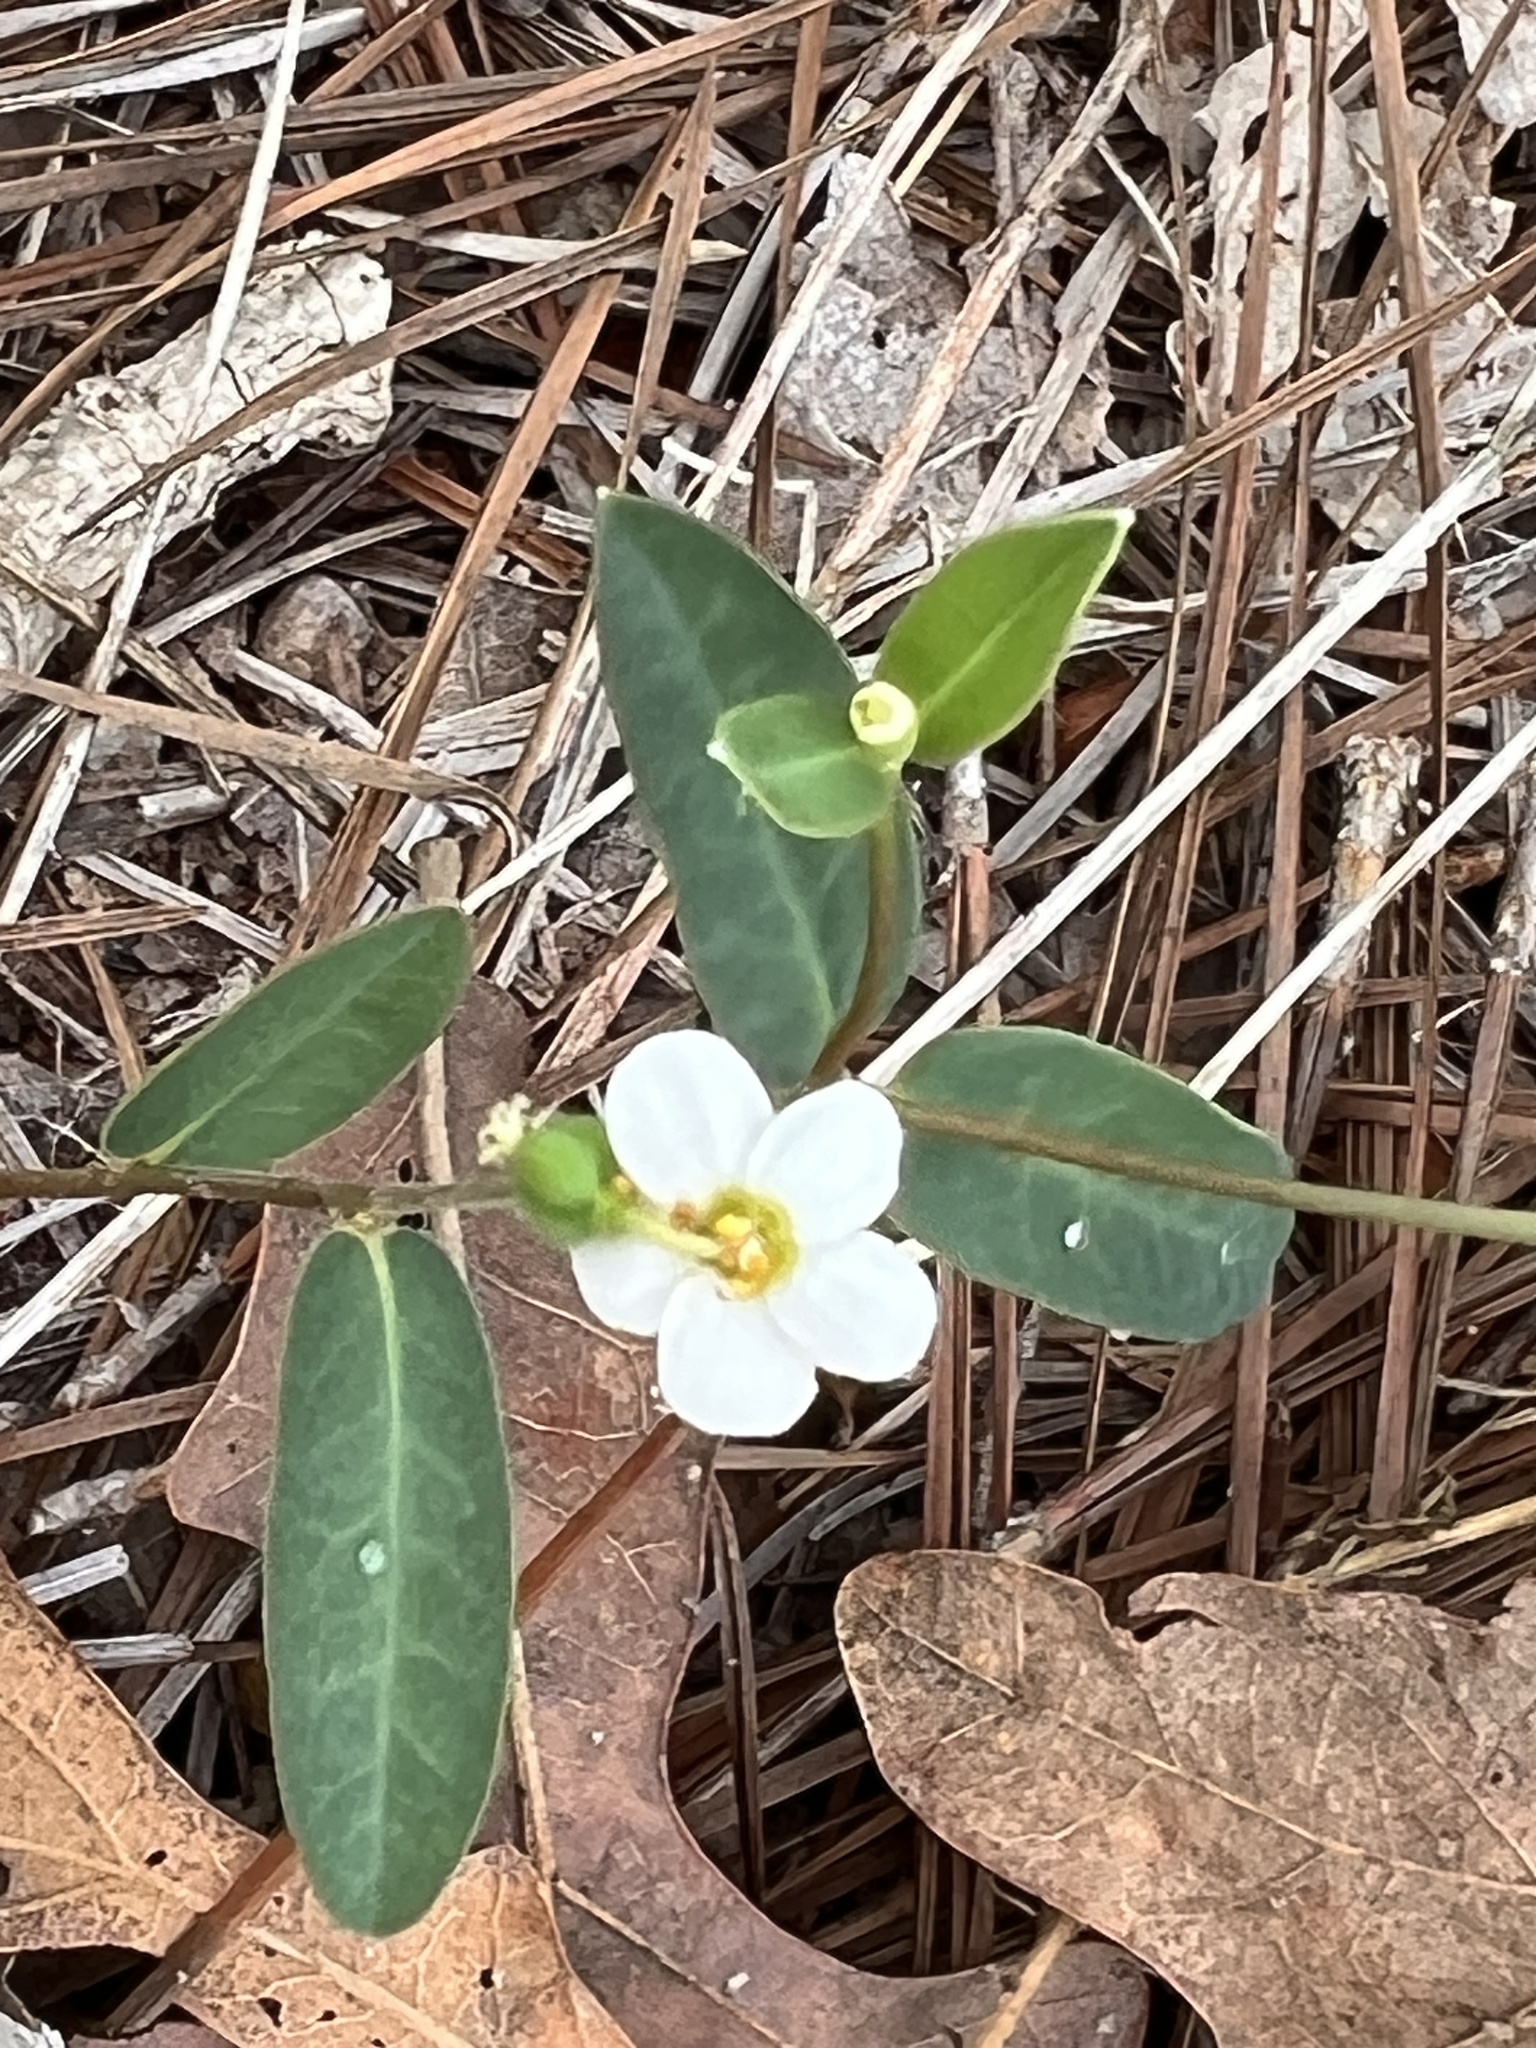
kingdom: Plantae
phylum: Tracheophyta
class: Magnoliopsida
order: Malpighiales
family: Euphorbiaceae
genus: Euphorbia
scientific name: Euphorbia corollata
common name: Flowering spurge
